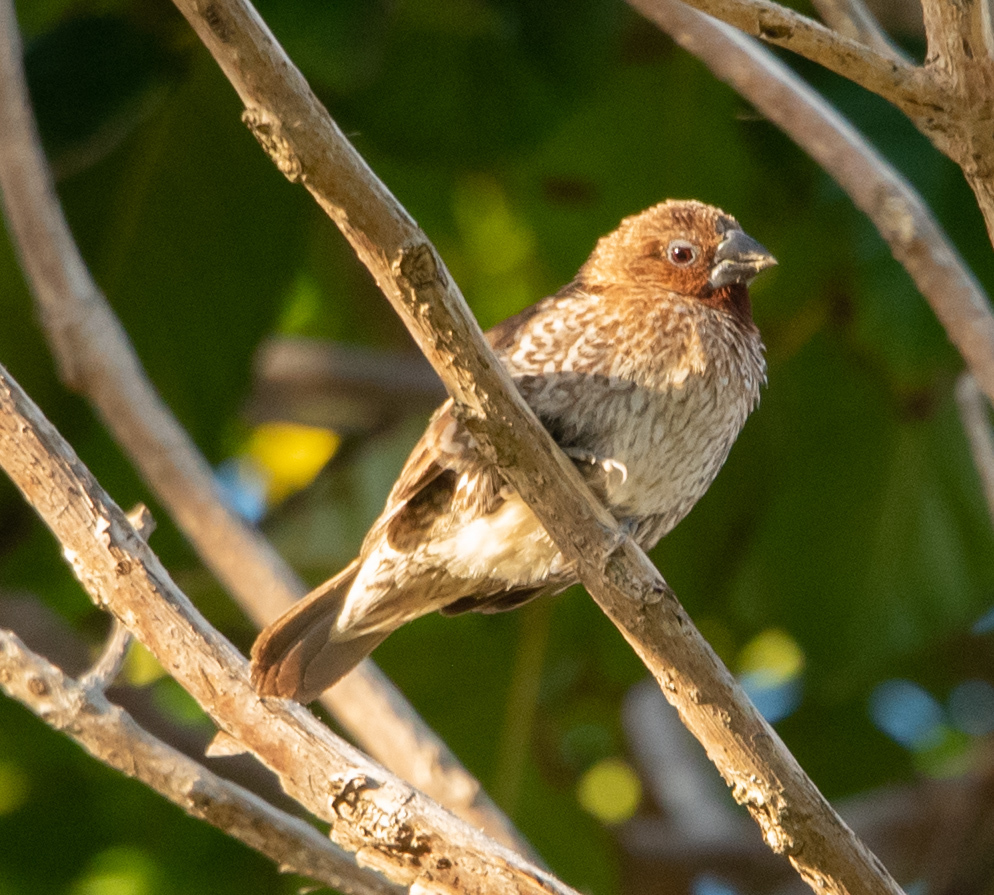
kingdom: Animalia
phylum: Chordata
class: Aves
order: Passeriformes
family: Estrildidae
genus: Lonchura
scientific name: Lonchura punctulata
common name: Scaly-breasted munia
